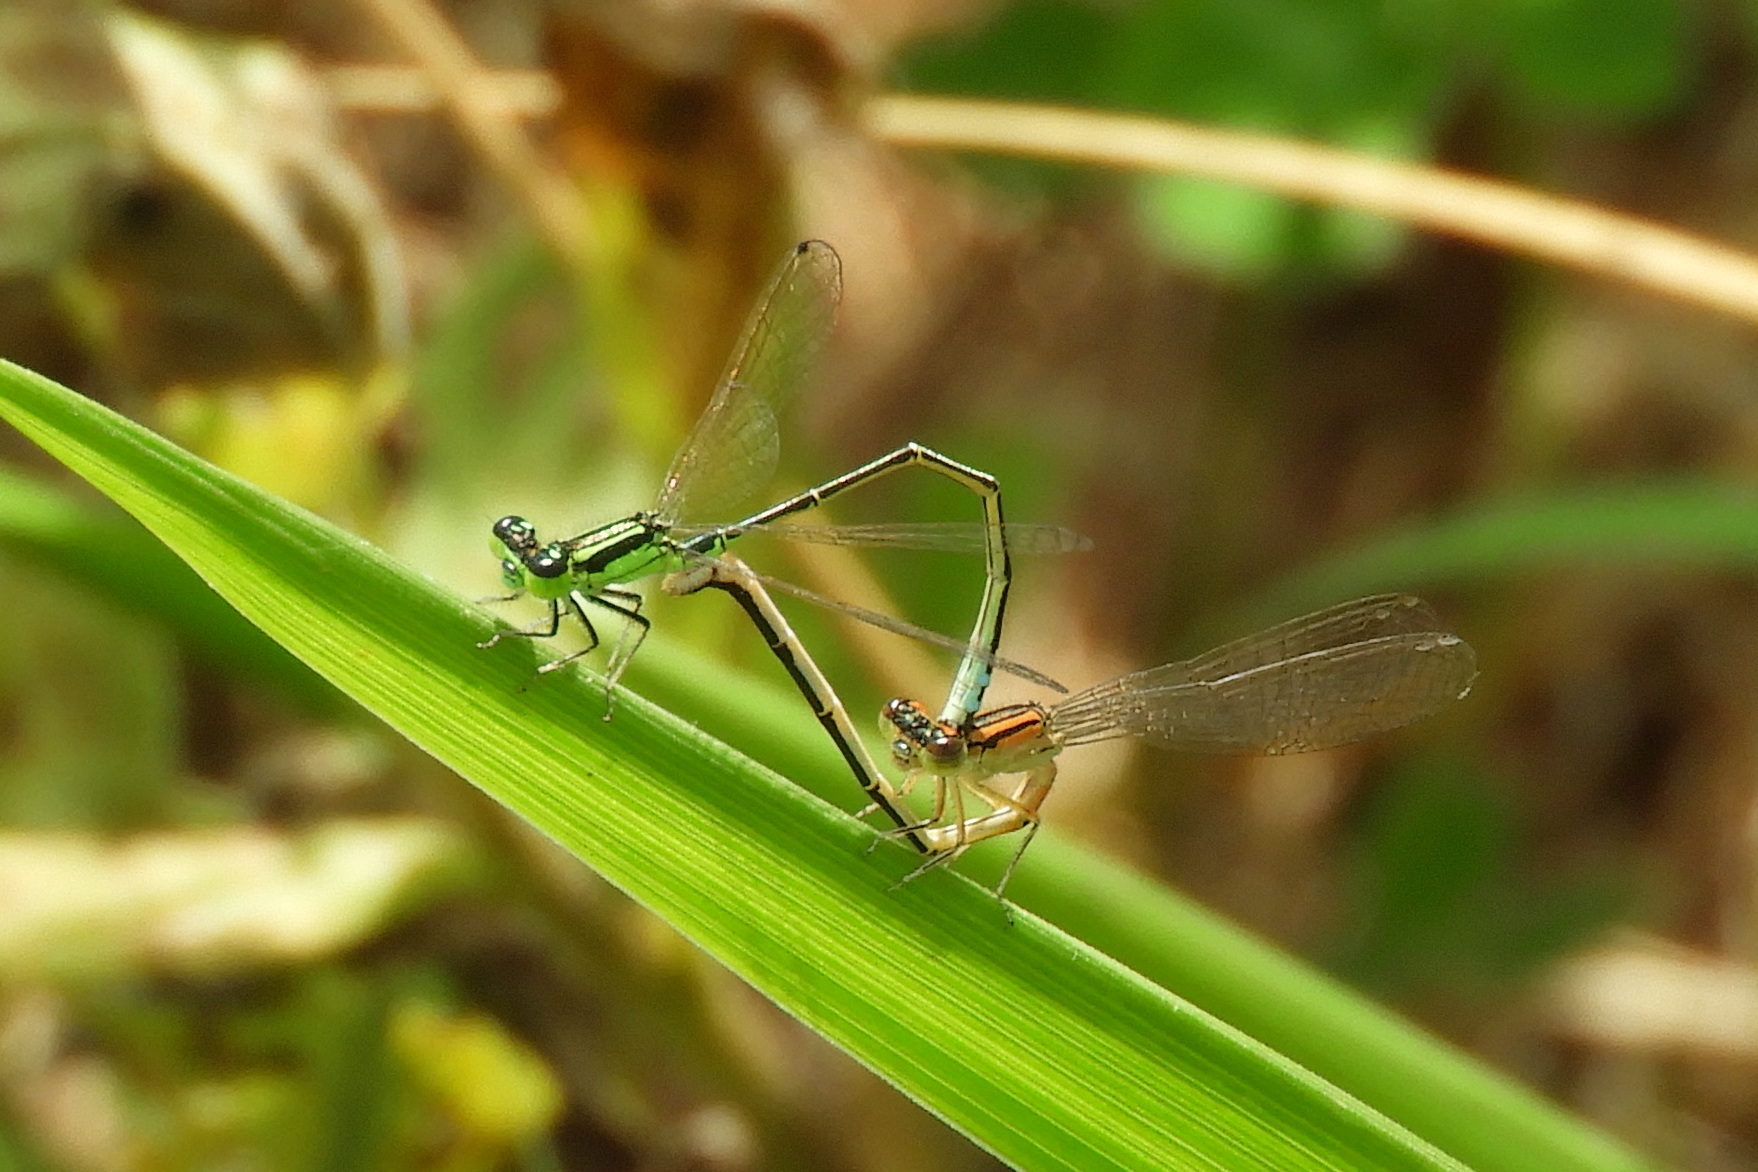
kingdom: Animalia
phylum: Arthropoda
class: Insecta
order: Odonata
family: Coenagrionidae
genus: Ischnura
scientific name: Ischnura verticalis
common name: Eastern forktail
